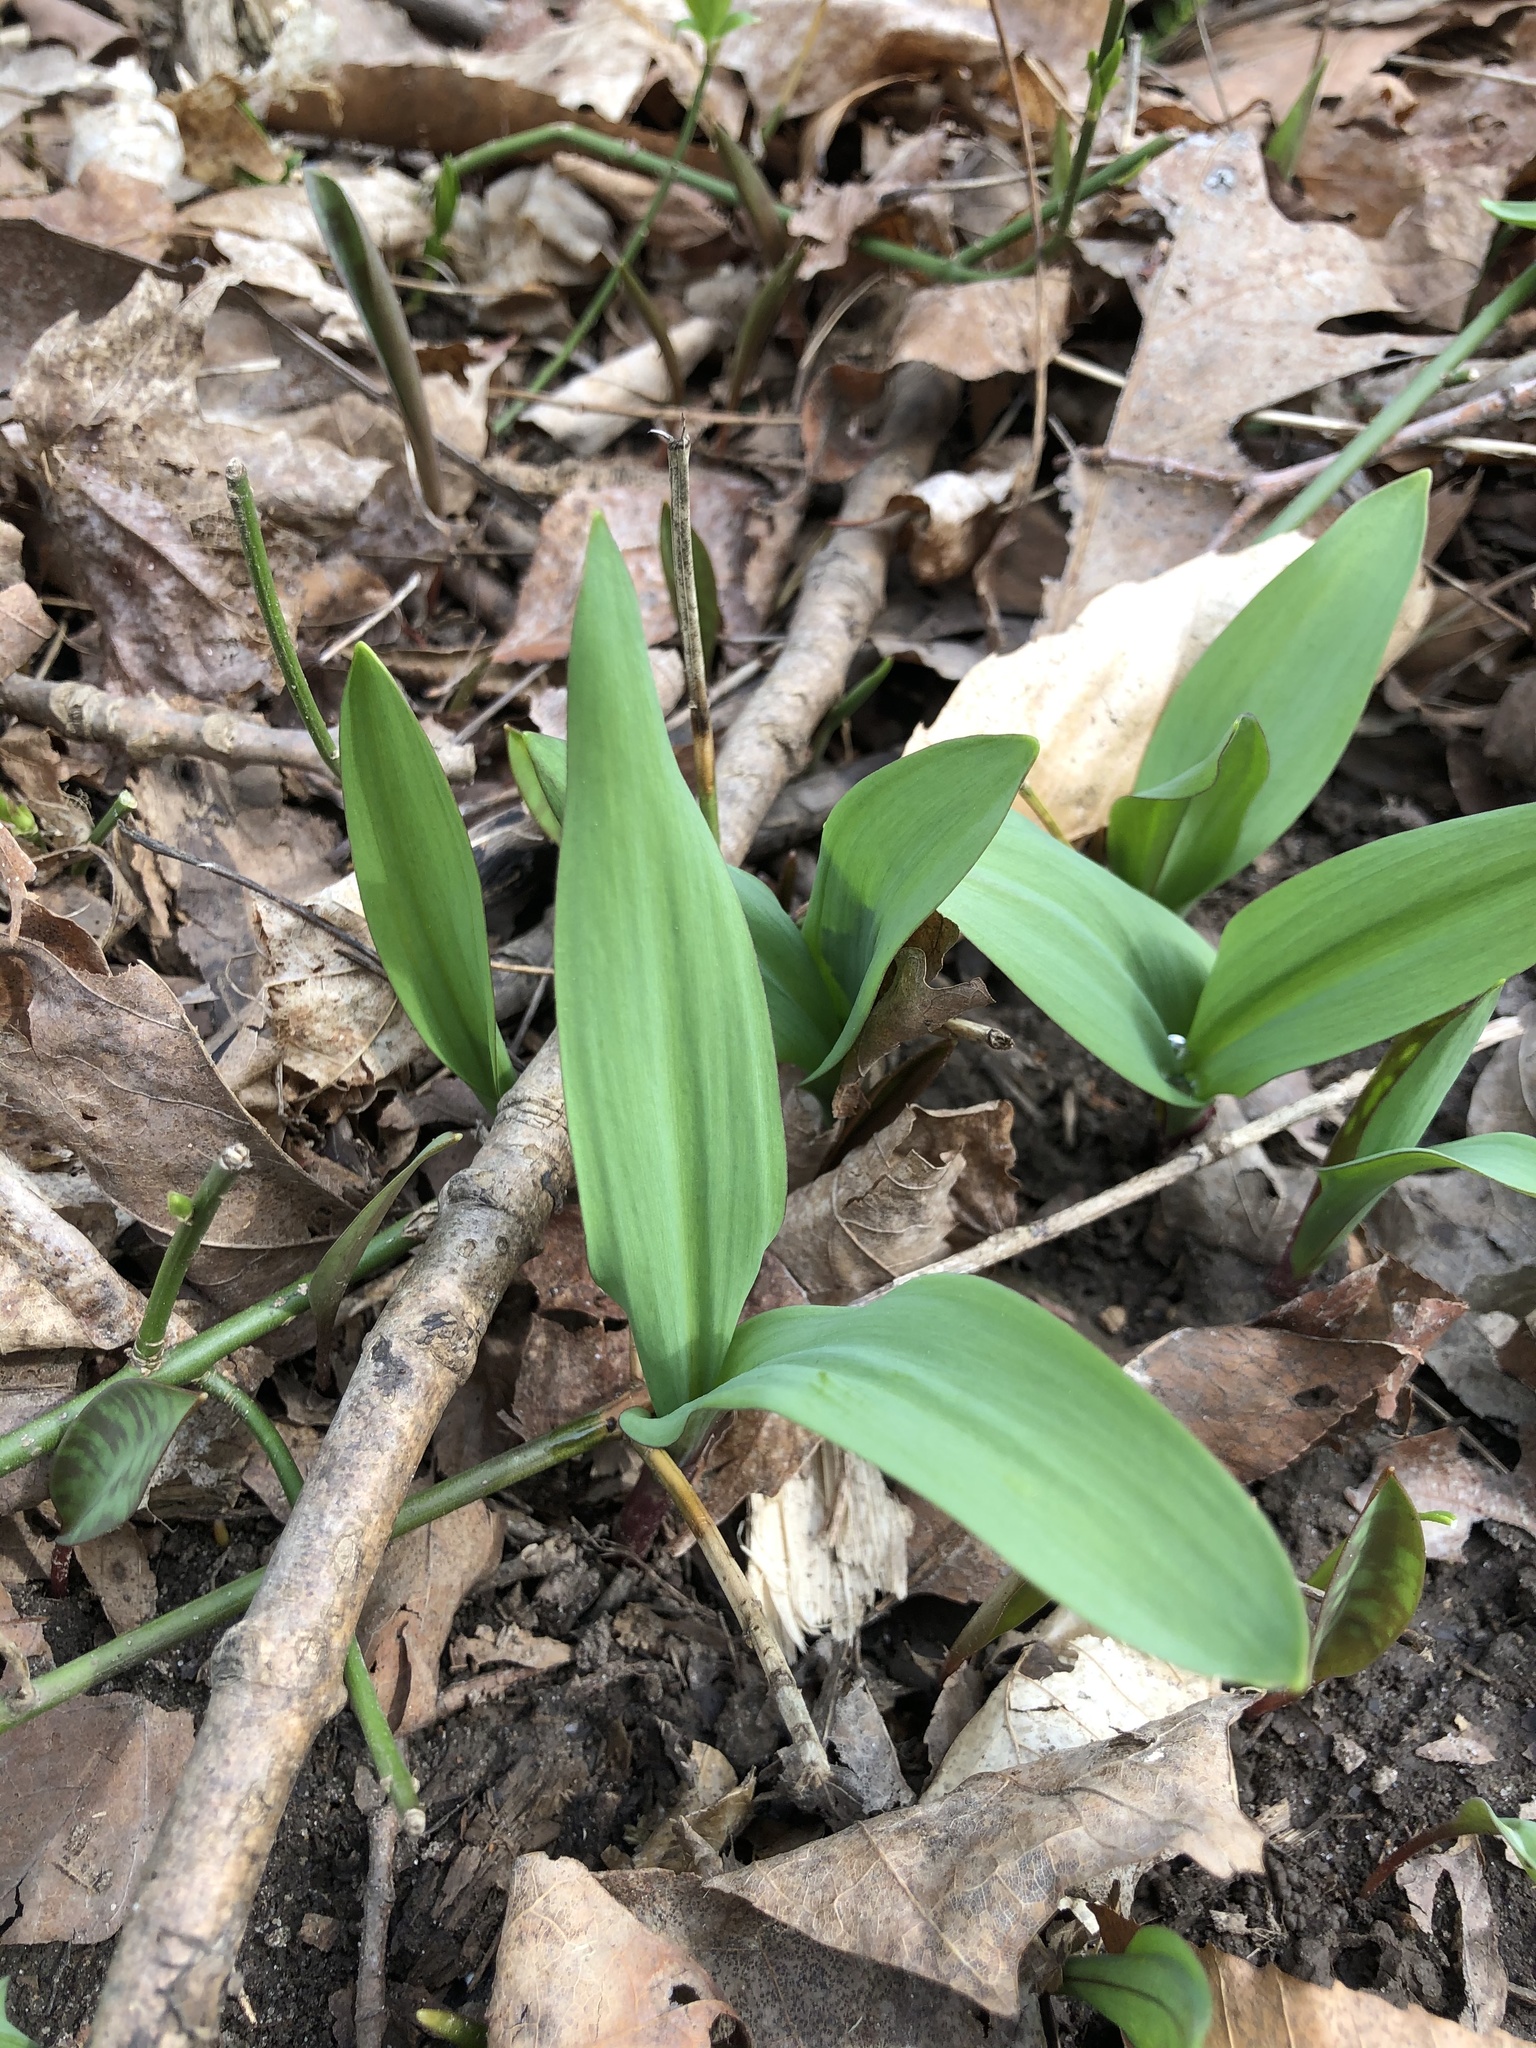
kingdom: Plantae
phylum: Tracheophyta
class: Liliopsida
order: Asparagales
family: Amaryllidaceae
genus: Allium
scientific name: Allium tricoccum
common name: Ramp
